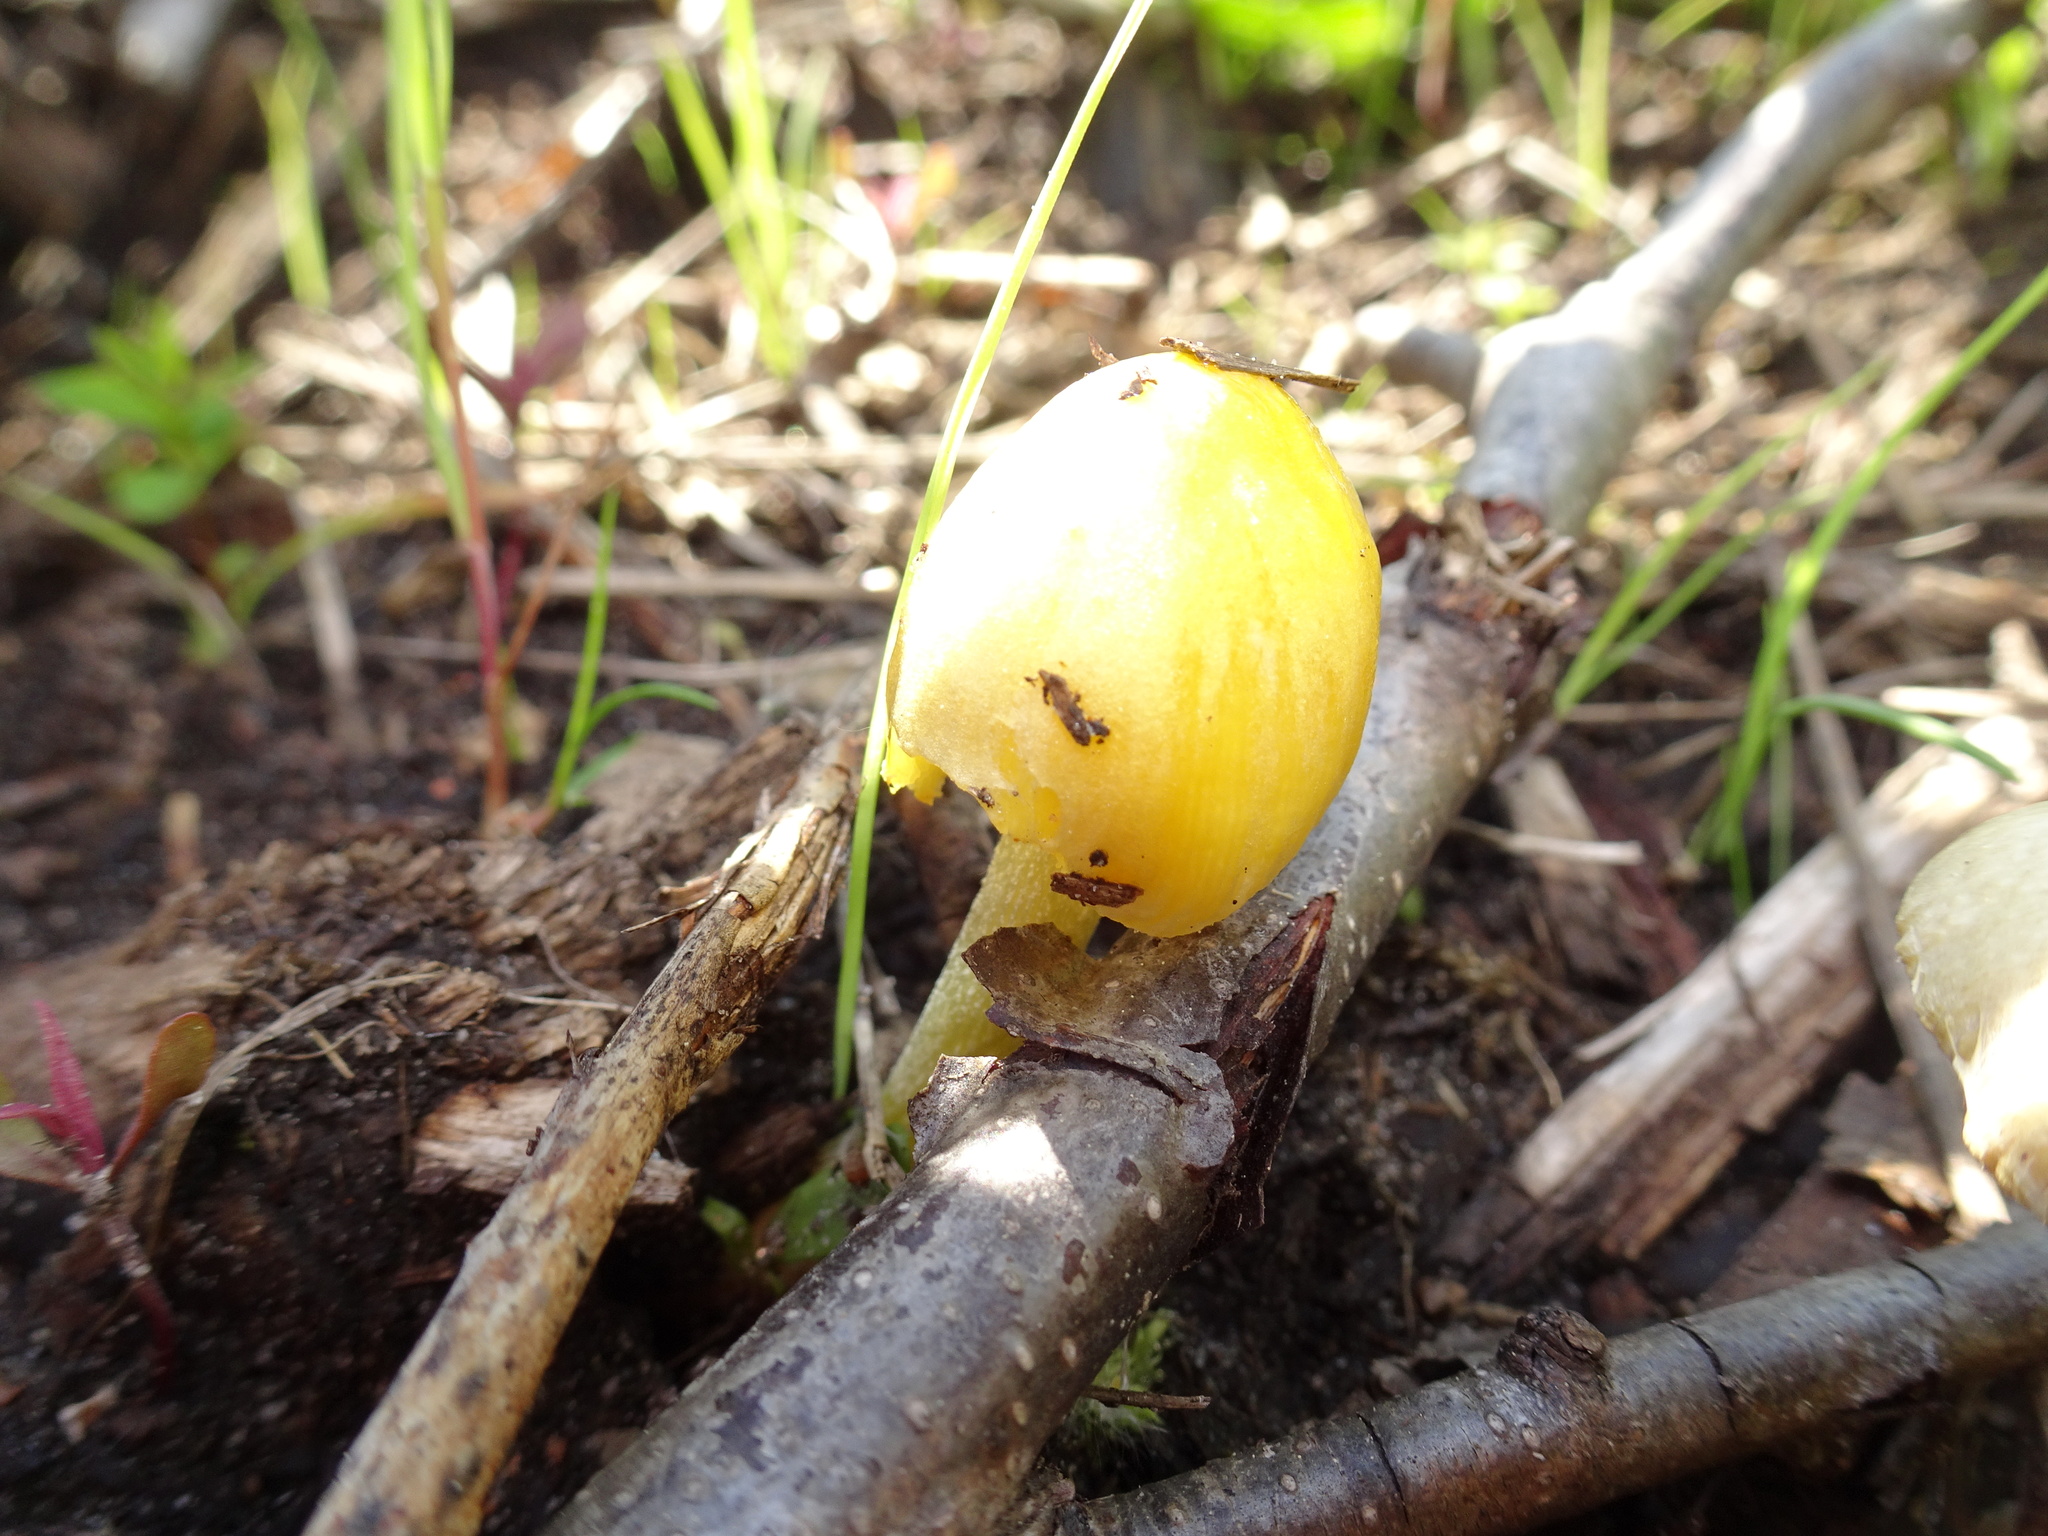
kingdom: Fungi
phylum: Basidiomycota
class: Agaricomycetes
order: Agaricales
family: Bolbitiaceae
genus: Bolbitius
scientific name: Bolbitius titubans
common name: Yellow fieldcap
